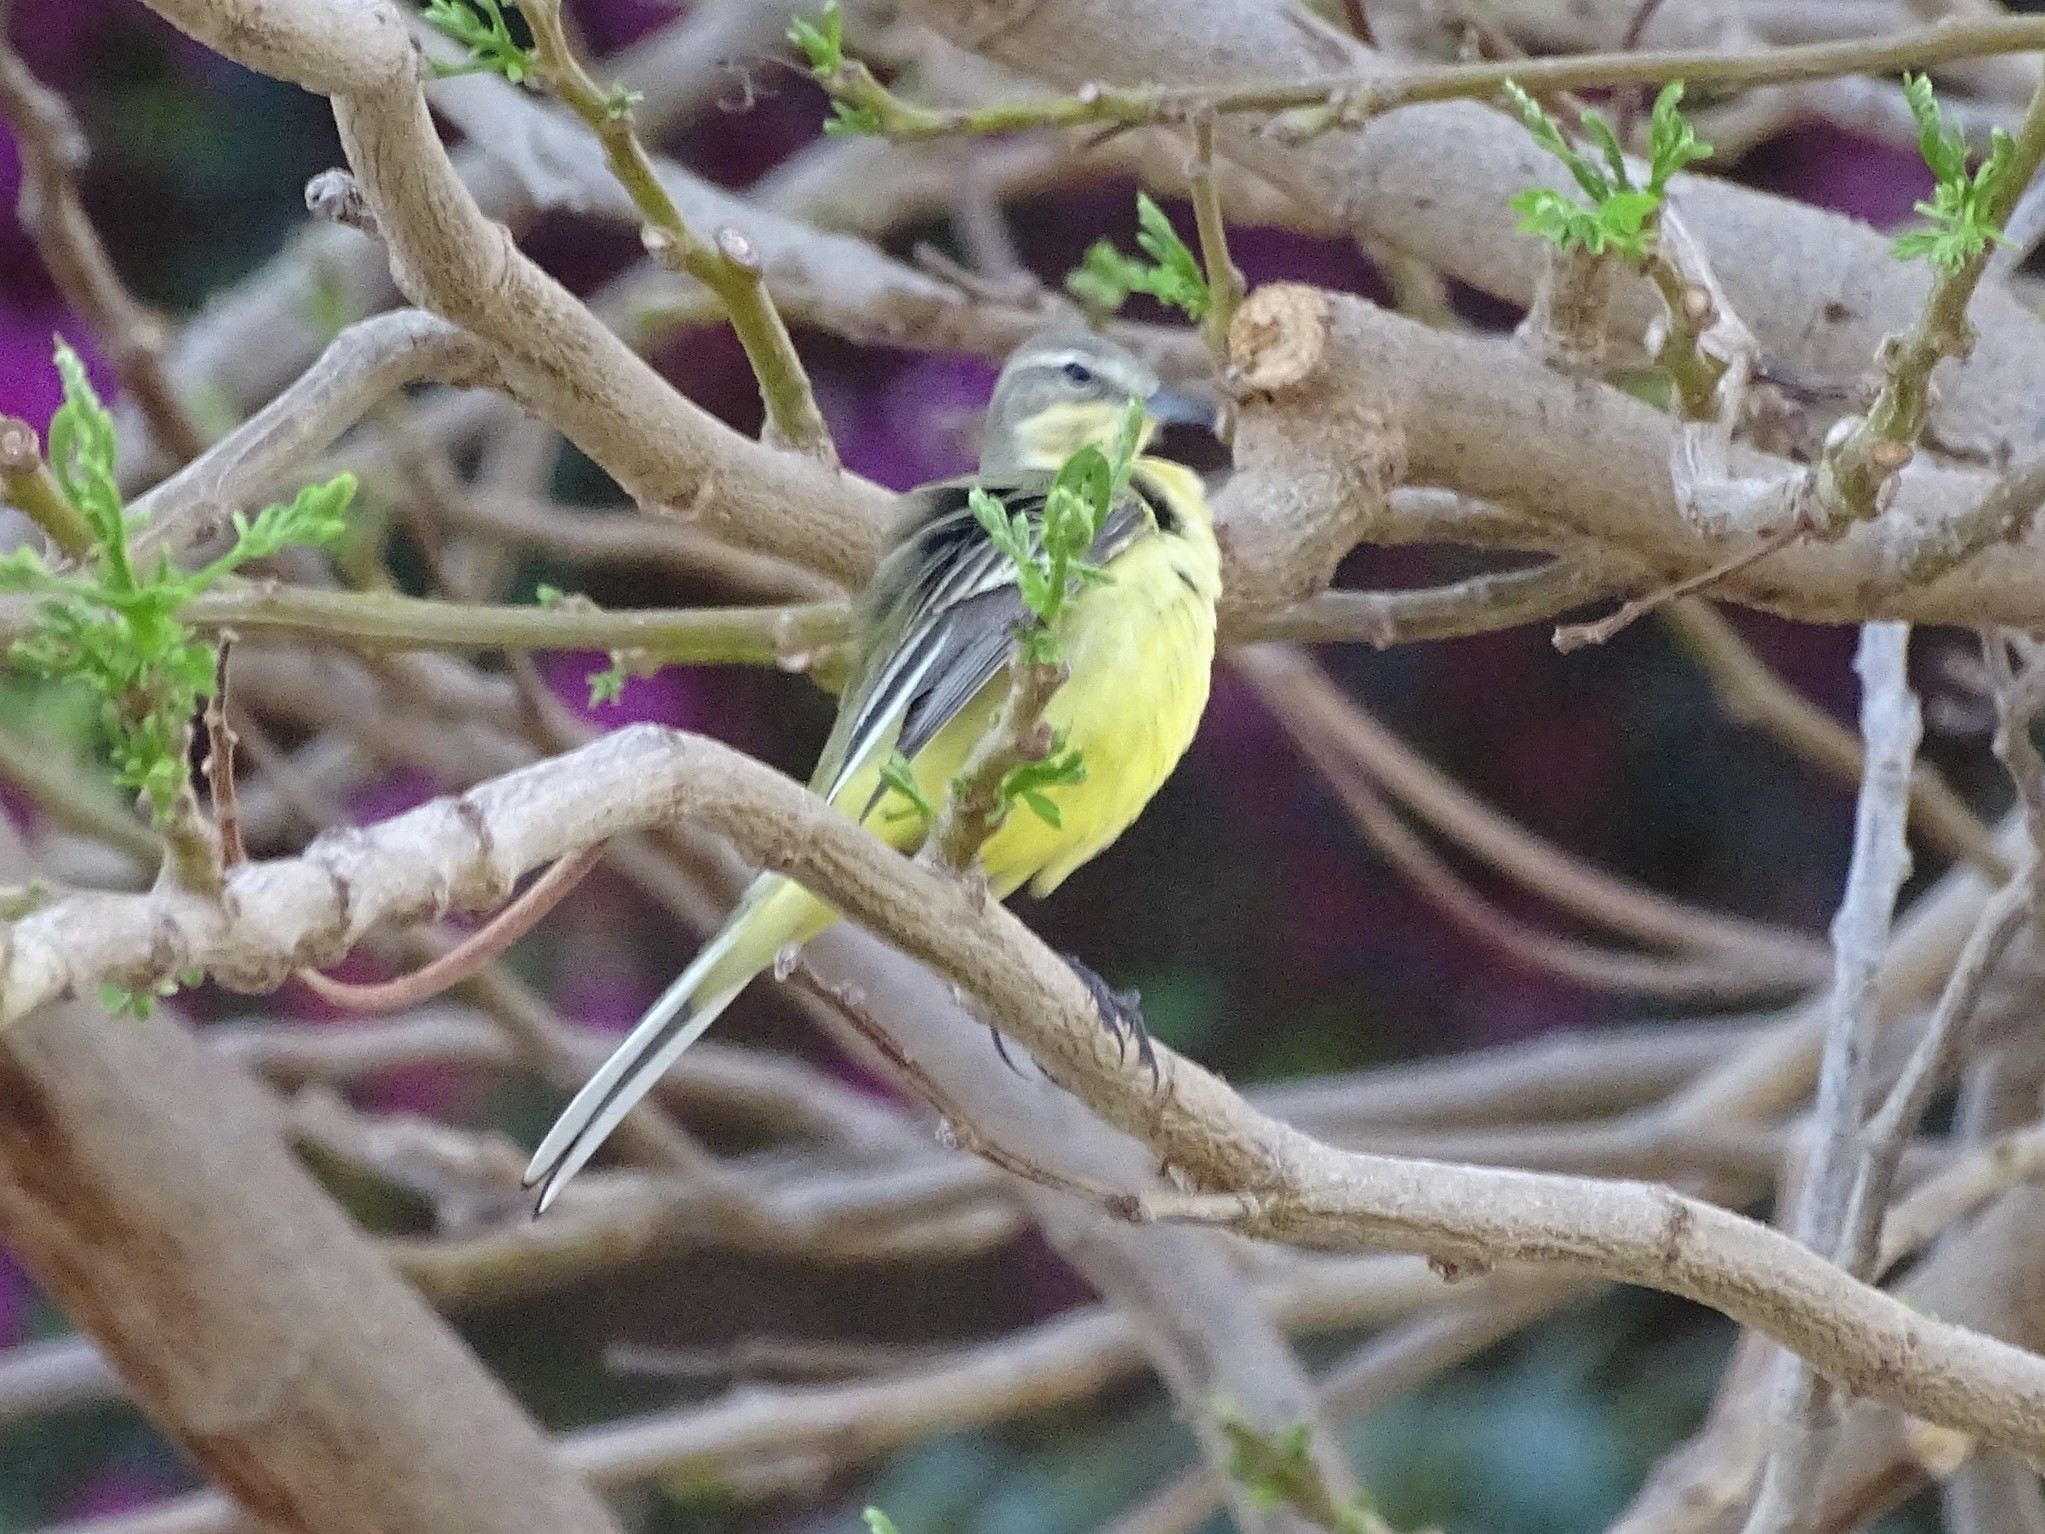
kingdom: Animalia
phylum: Chordata
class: Aves
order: Passeriformes
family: Motacillidae
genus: Motacilla
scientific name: Motacilla flava
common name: Western yellow wagtail
